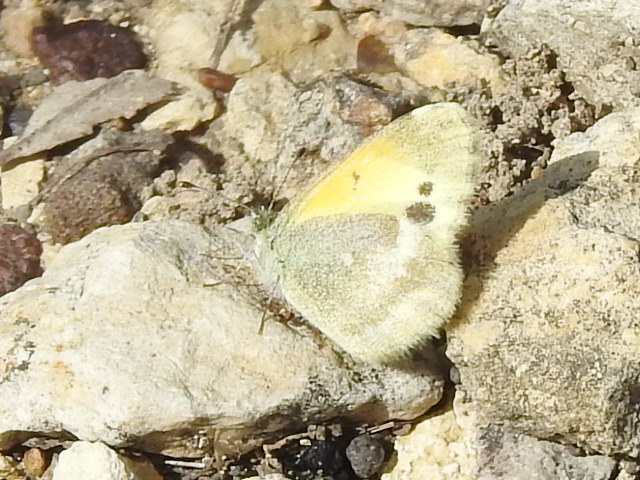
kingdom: Animalia
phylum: Arthropoda
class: Insecta
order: Lepidoptera
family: Pieridae
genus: Nathalis
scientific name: Nathalis iole
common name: Dainty sulphur
